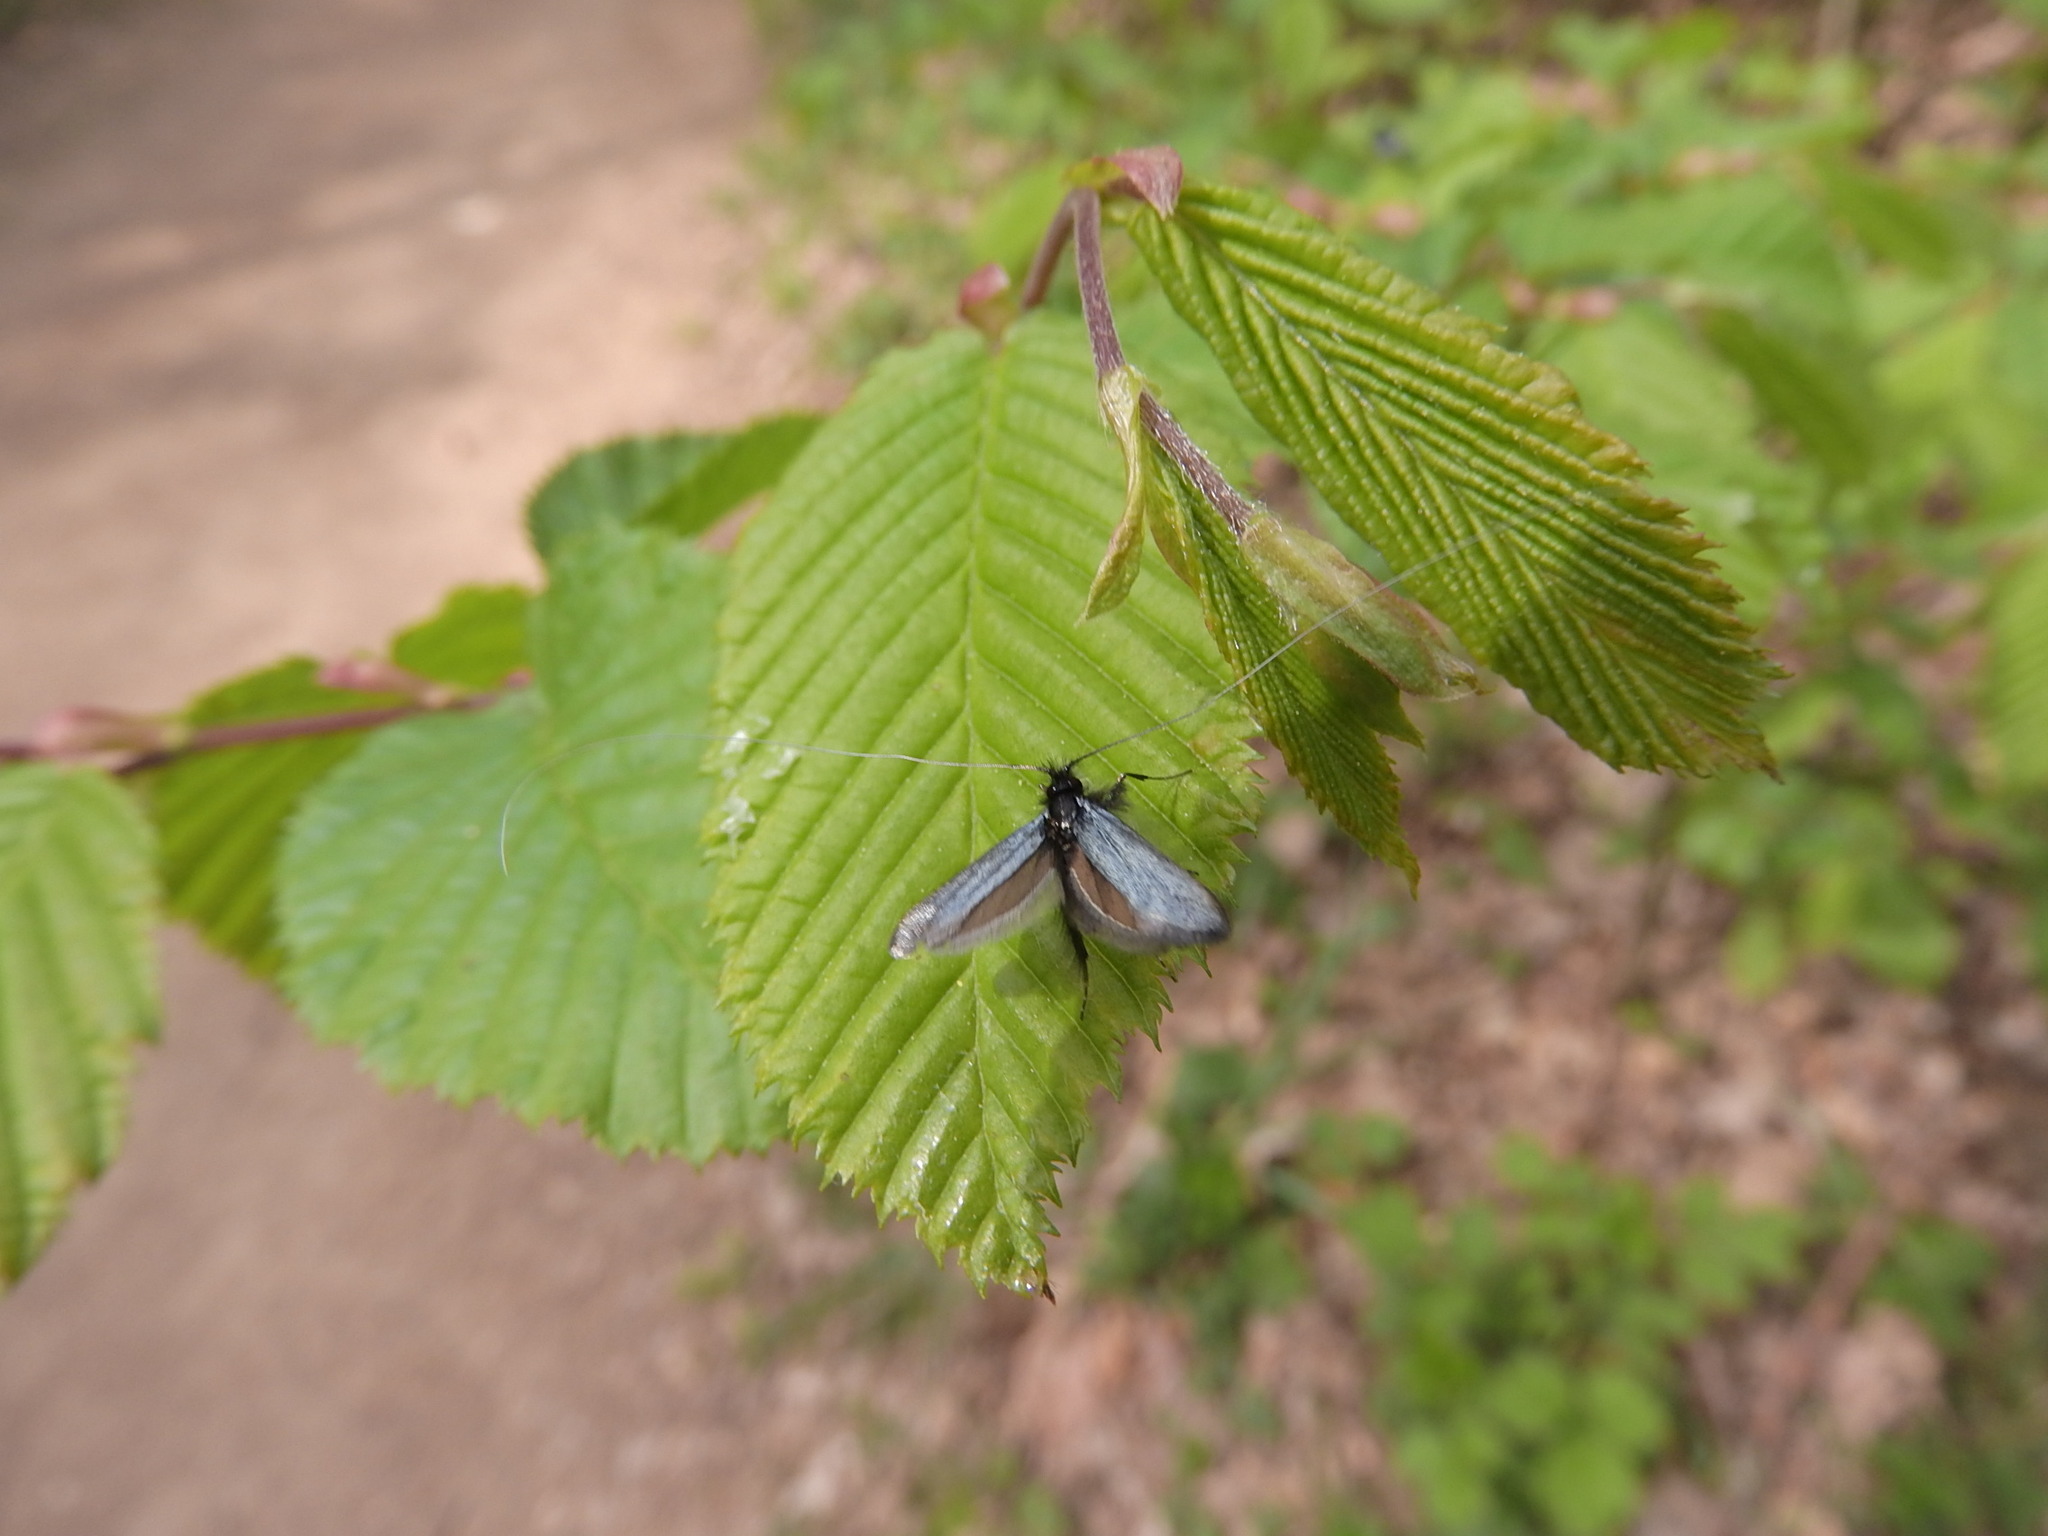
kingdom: Animalia
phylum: Arthropoda
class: Insecta
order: Lepidoptera
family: Adelidae
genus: Adela
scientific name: Adela viridella
